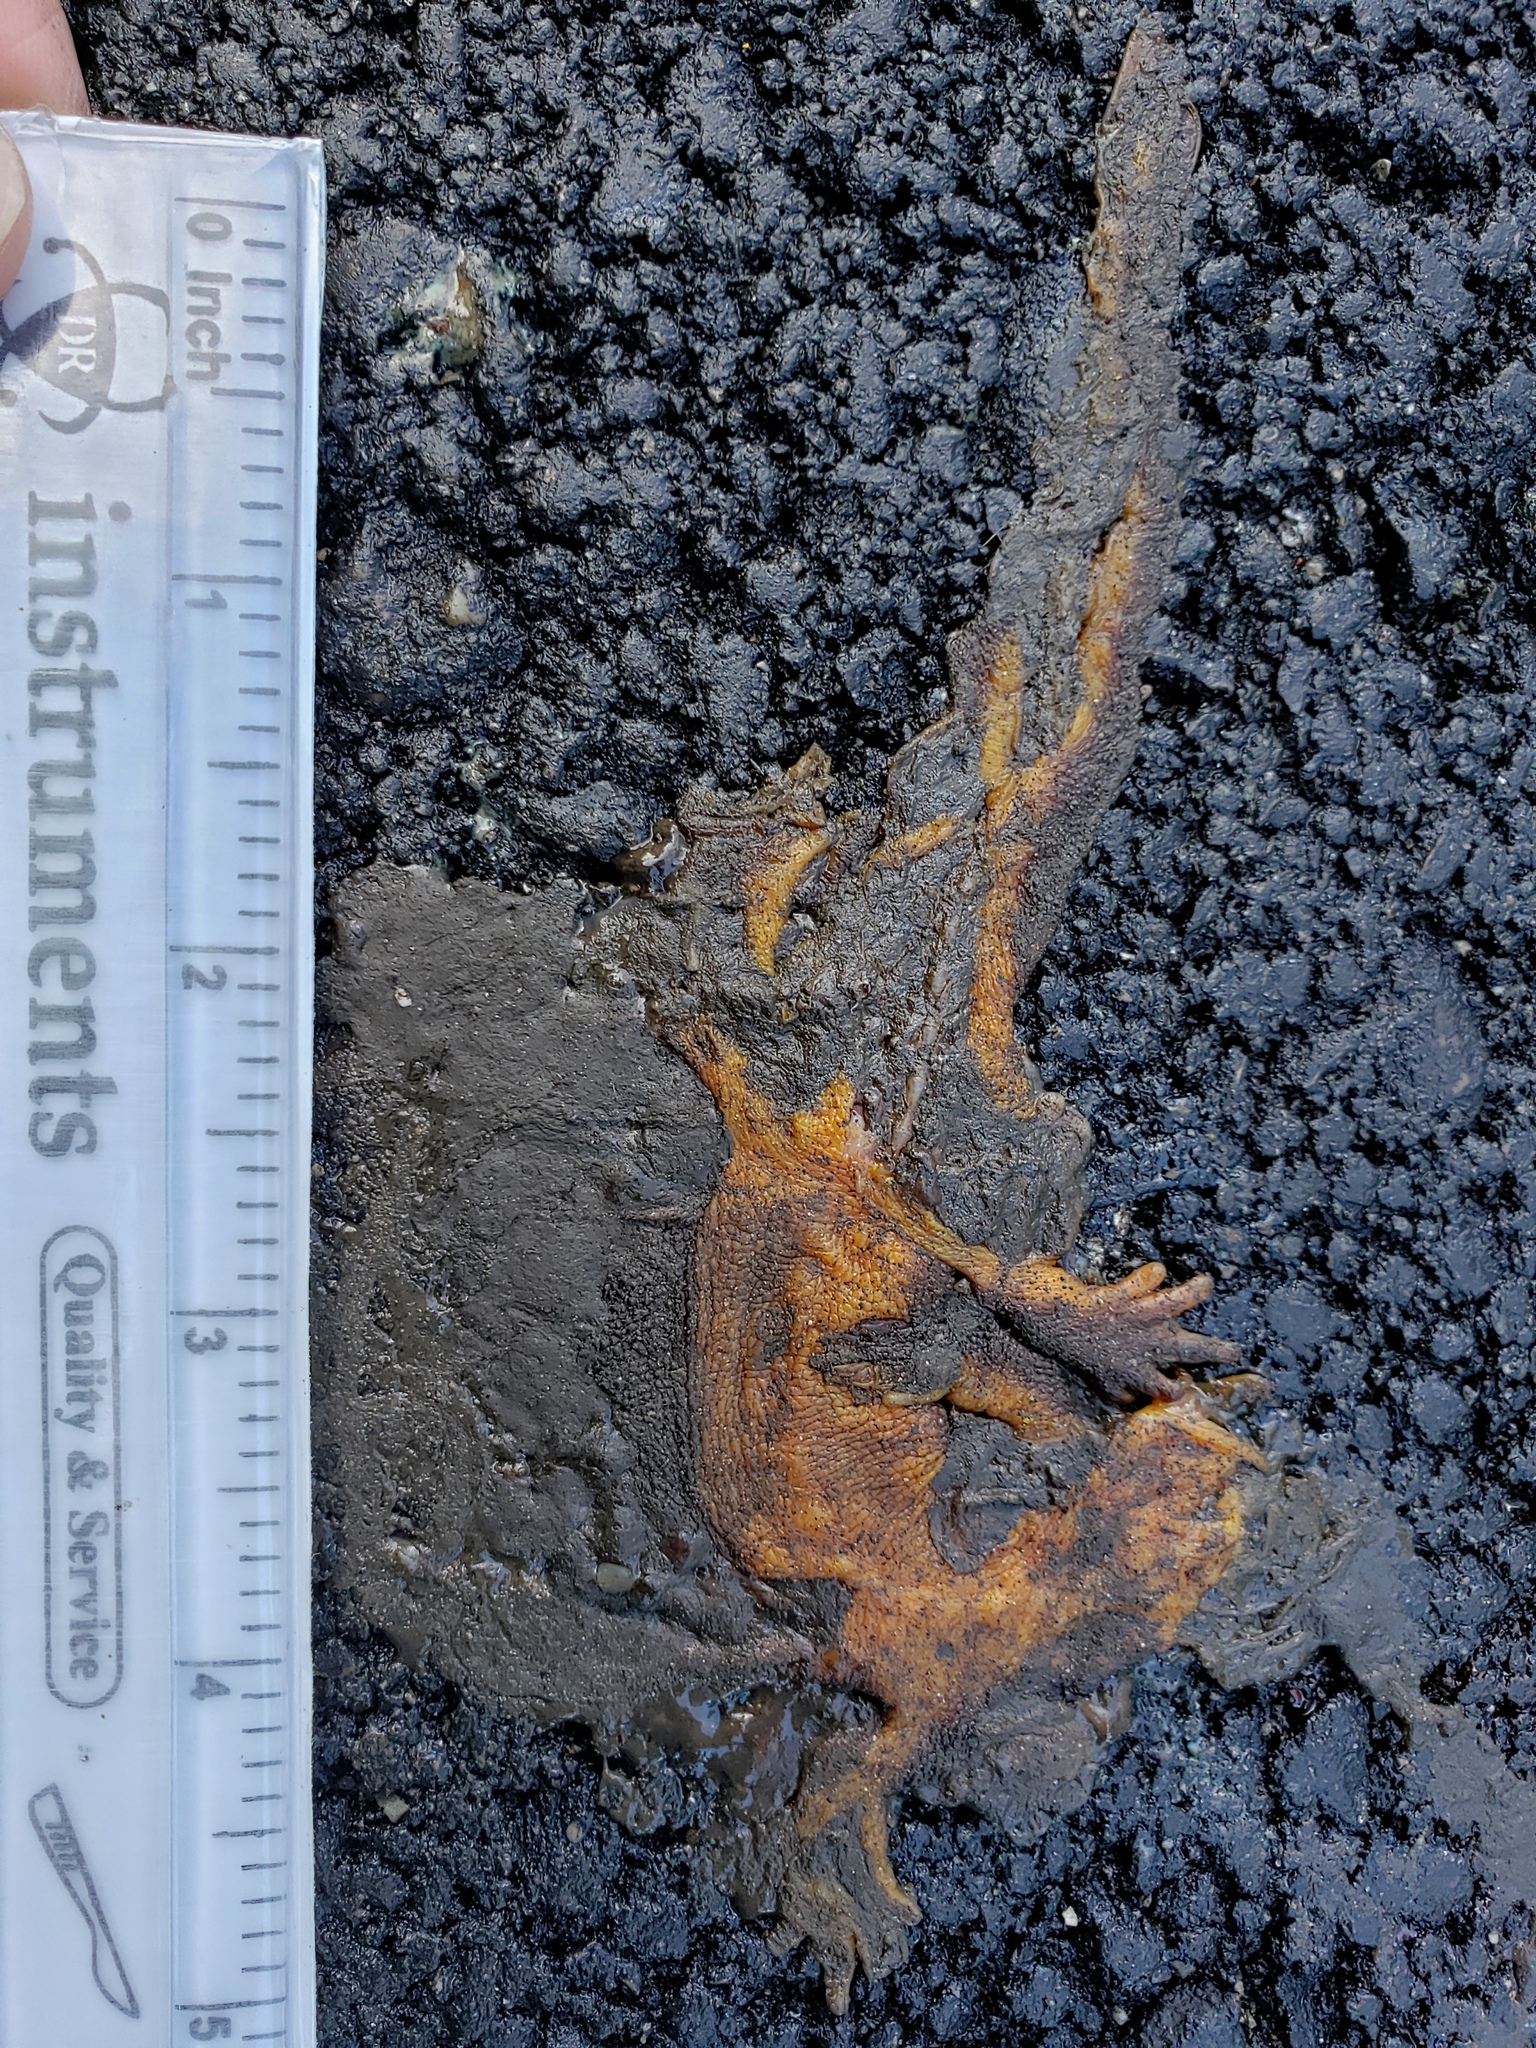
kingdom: Animalia
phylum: Chordata
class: Amphibia
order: Caudata
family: Salamandridae
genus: Taricha
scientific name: Taricha
